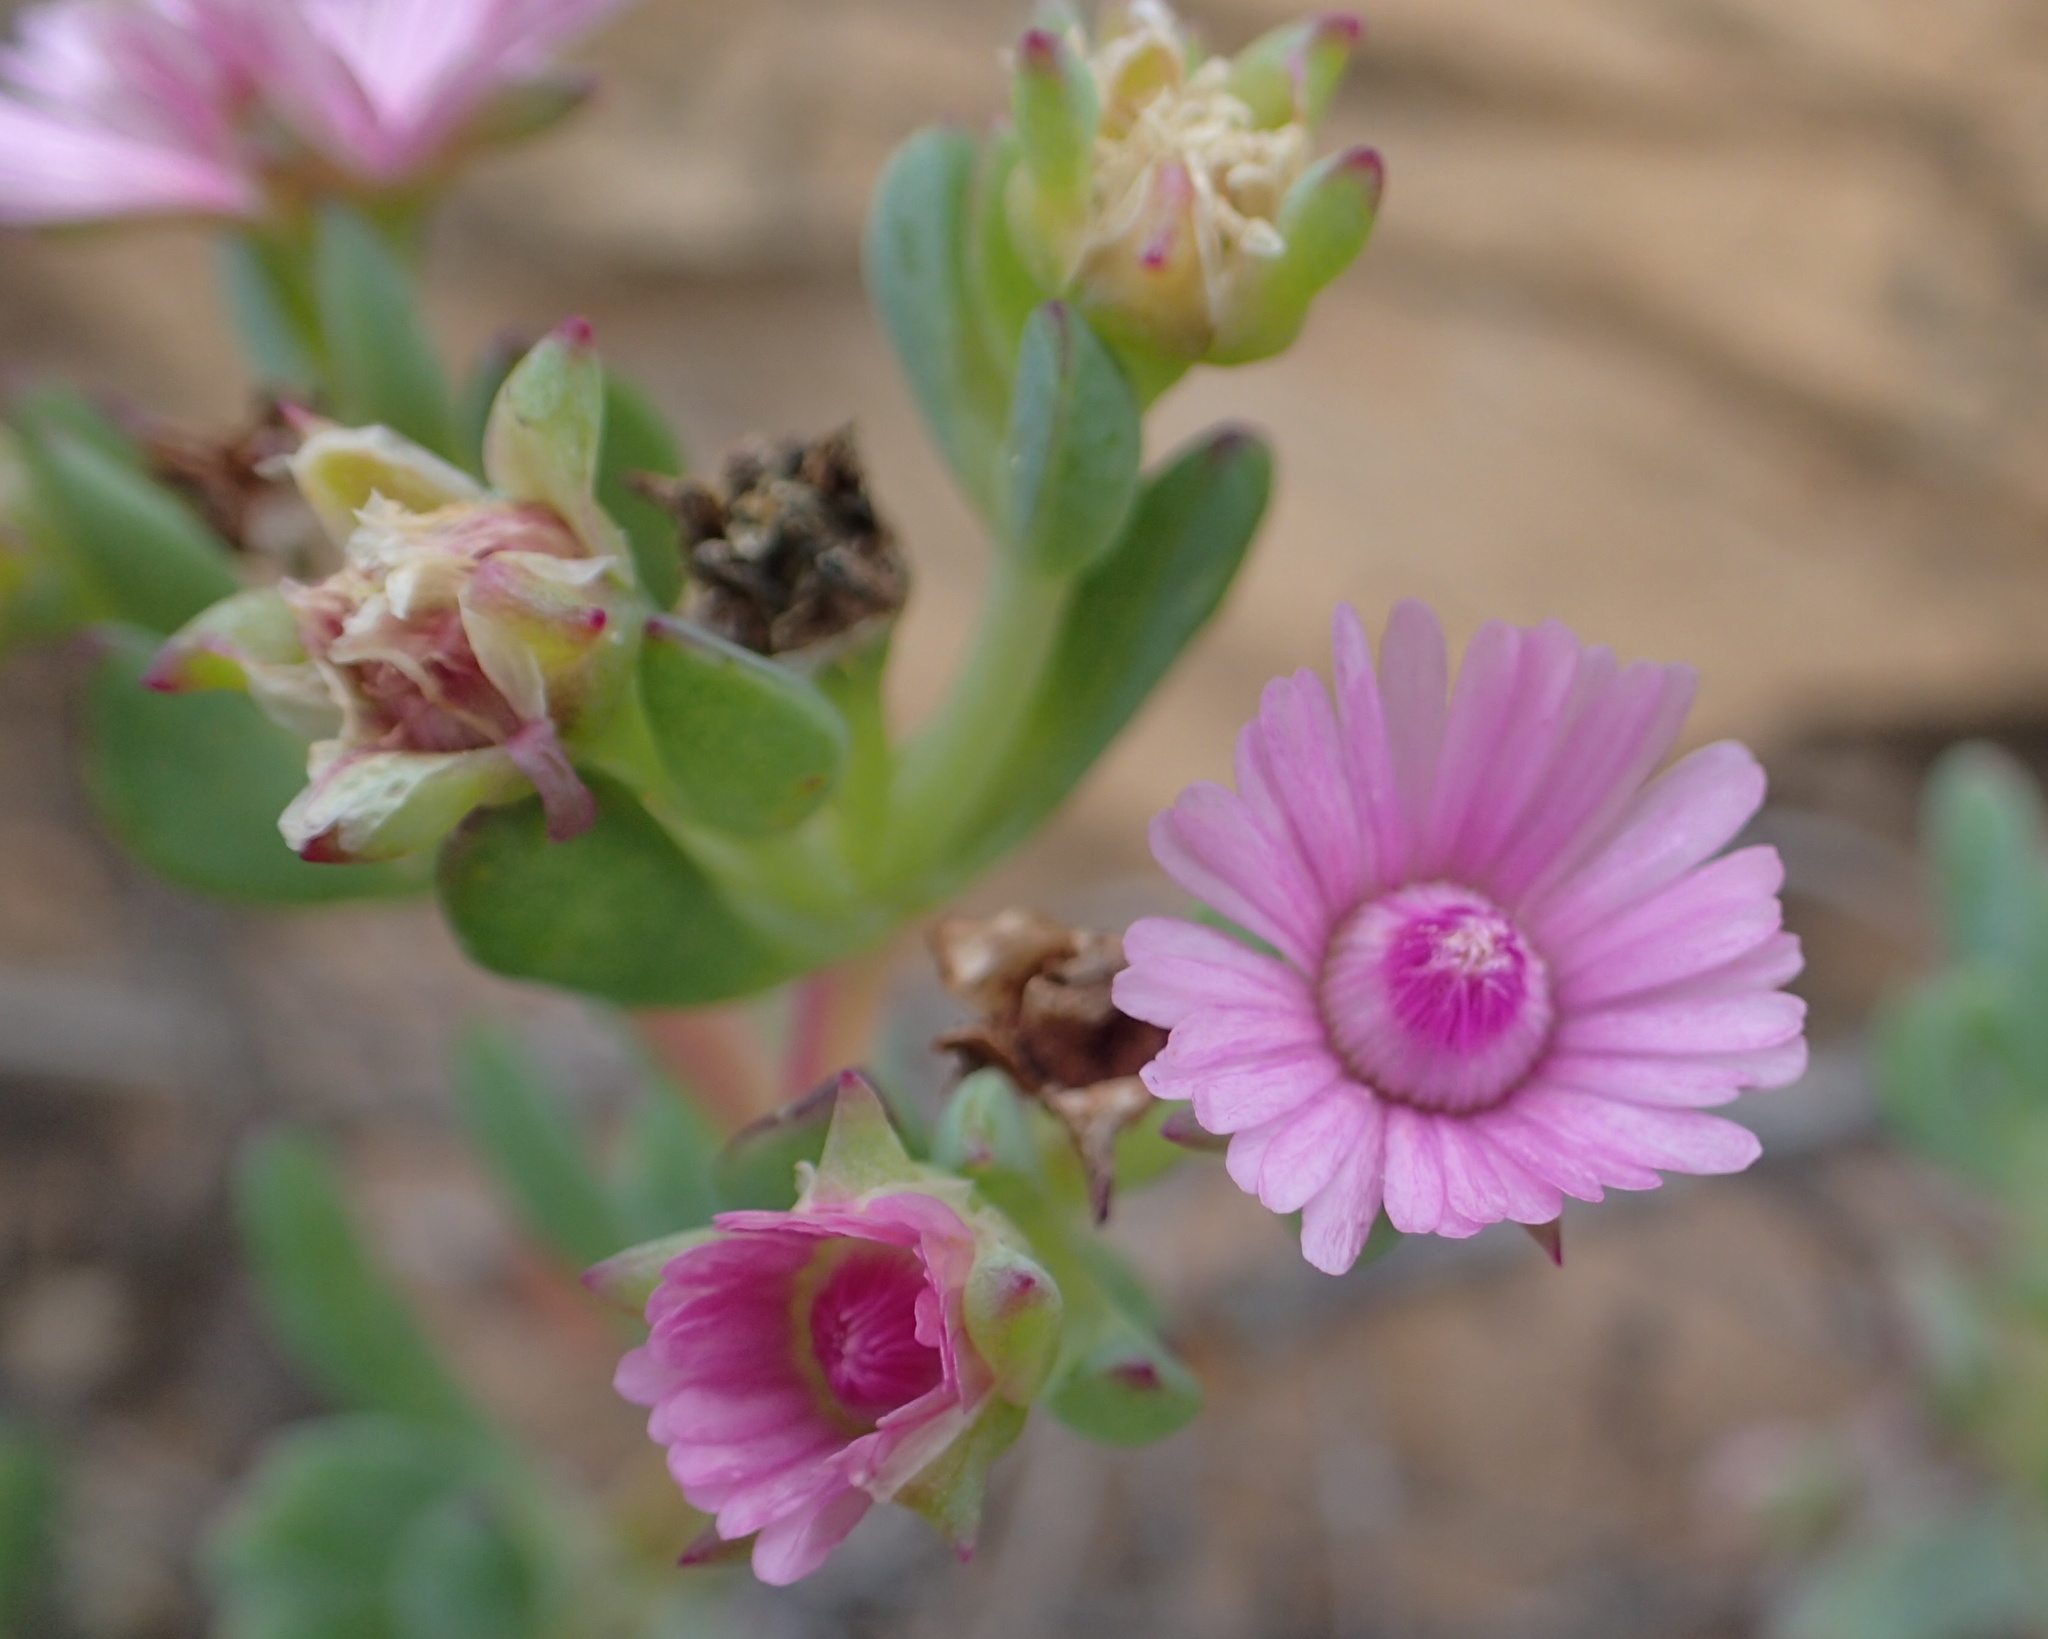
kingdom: Plantae
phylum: Tracheophyta
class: Magnoliopsida
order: Caryophyllales
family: Aizoaceae
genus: Ruschiella
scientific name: Ruschiella argentea
